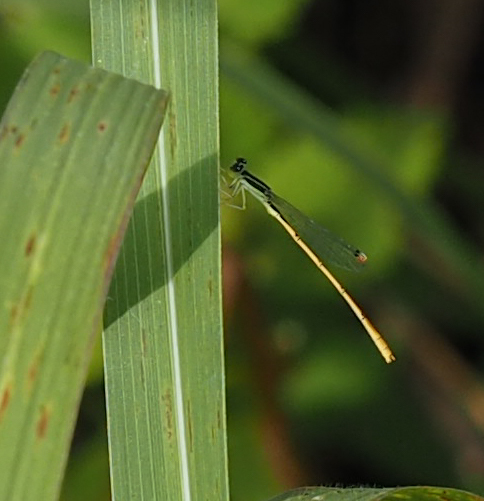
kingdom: Animalia
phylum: Arthropoda
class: Insecta
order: Odonata
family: Coenagrionidae
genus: Ischnura
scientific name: Ischnura hastata
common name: Citrine forktail
